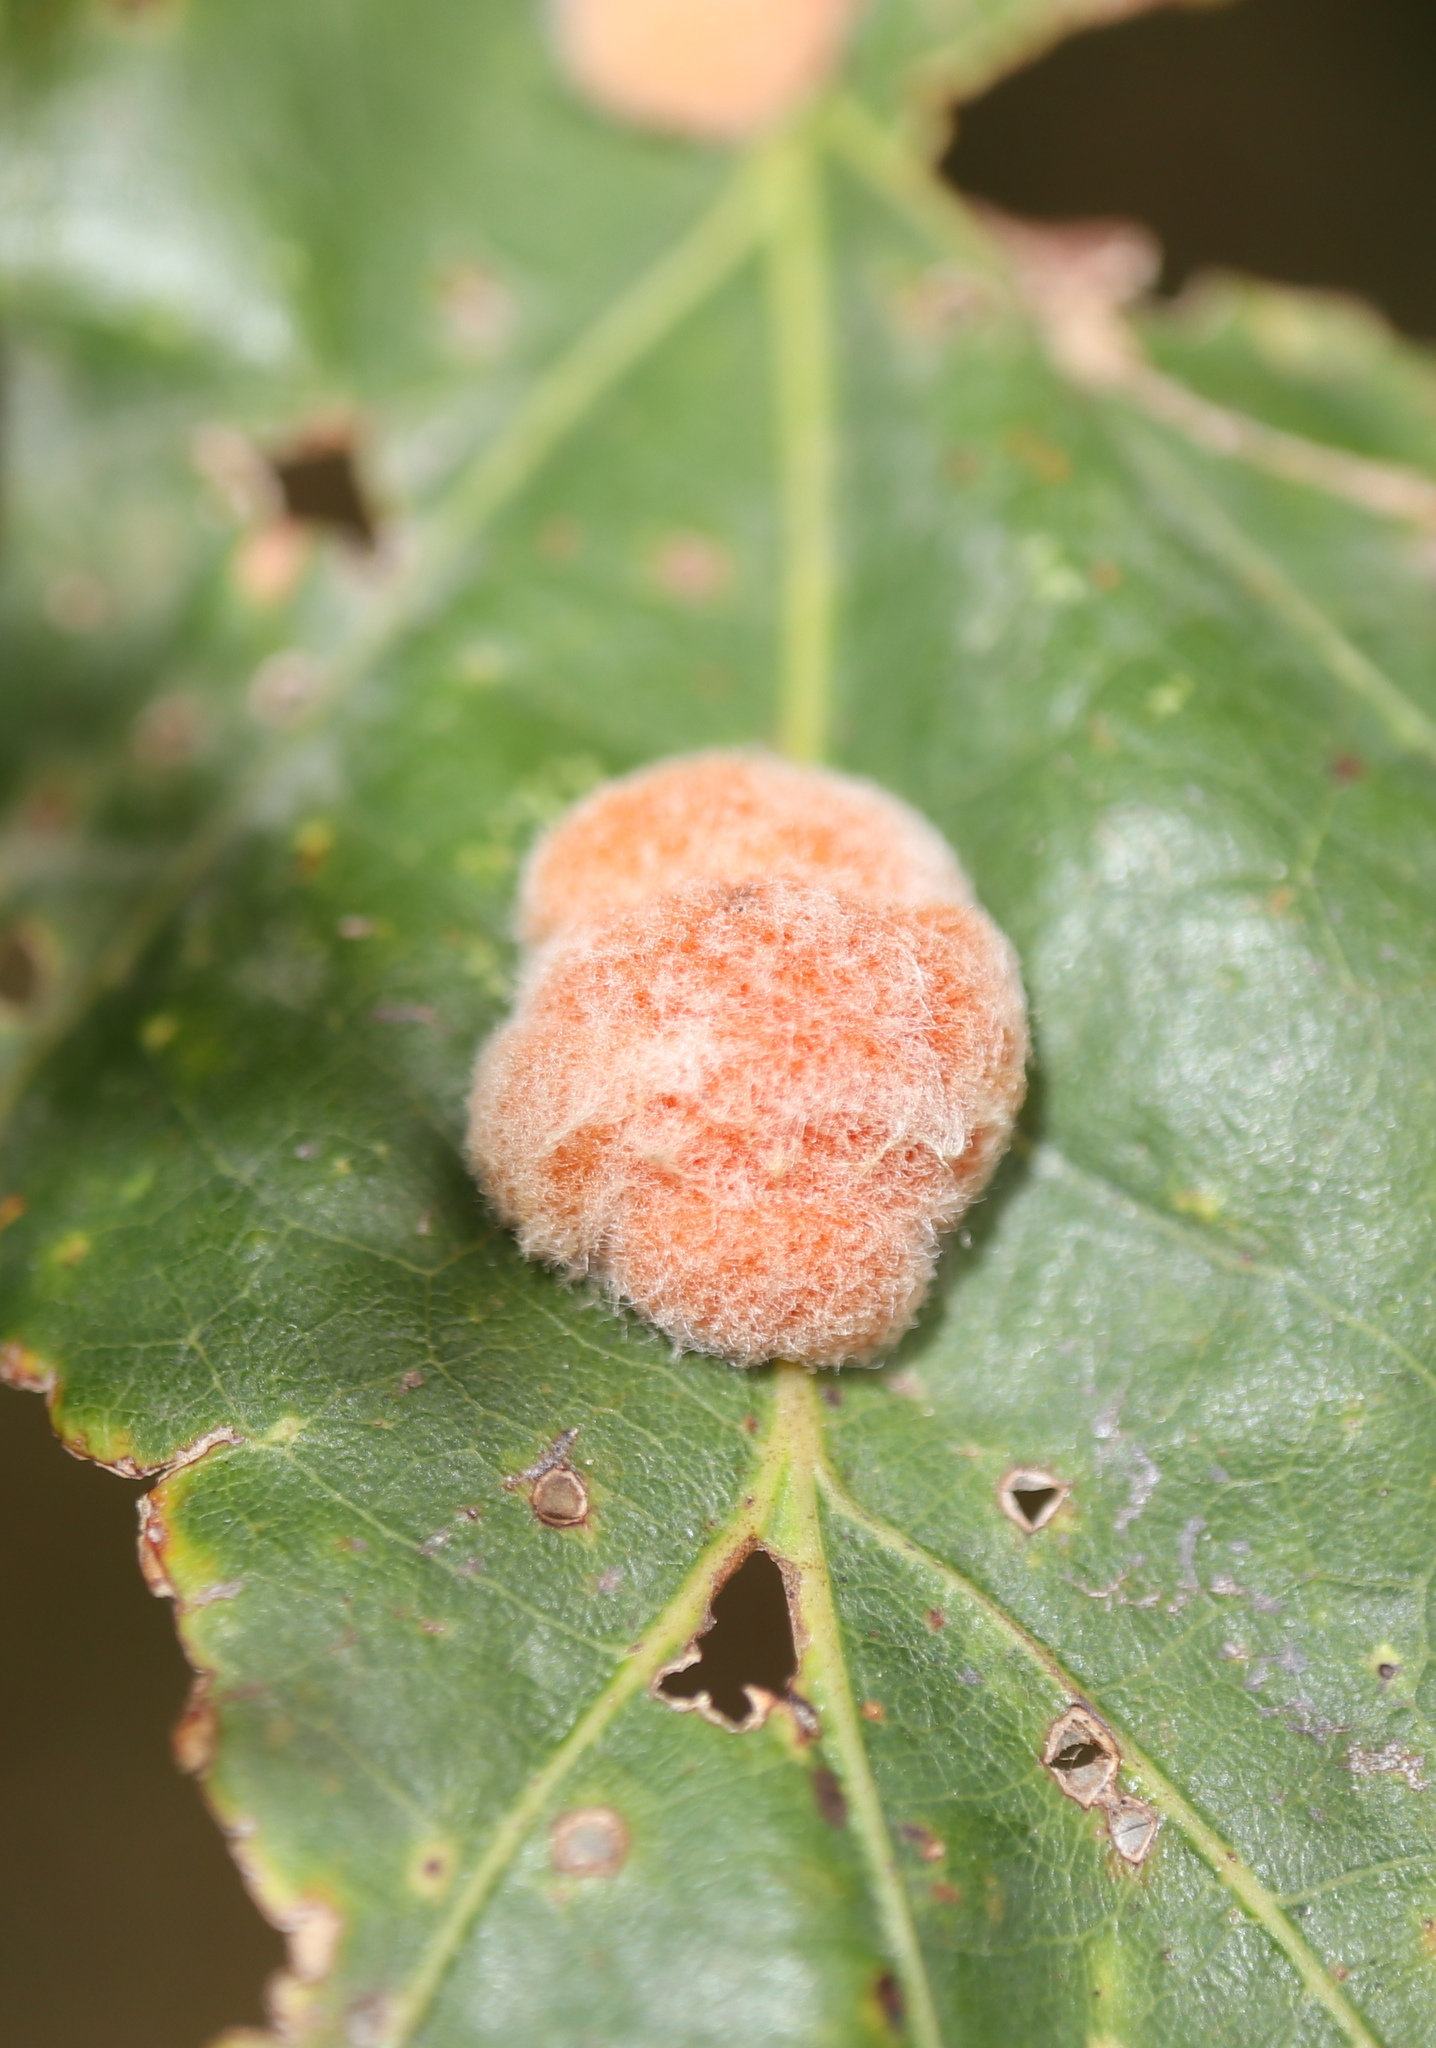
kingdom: Animalia
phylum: Arthropoda
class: Insecta
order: Hymenoptera
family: Cynipidae
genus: Andricus
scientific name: Andricus quercusflocci
